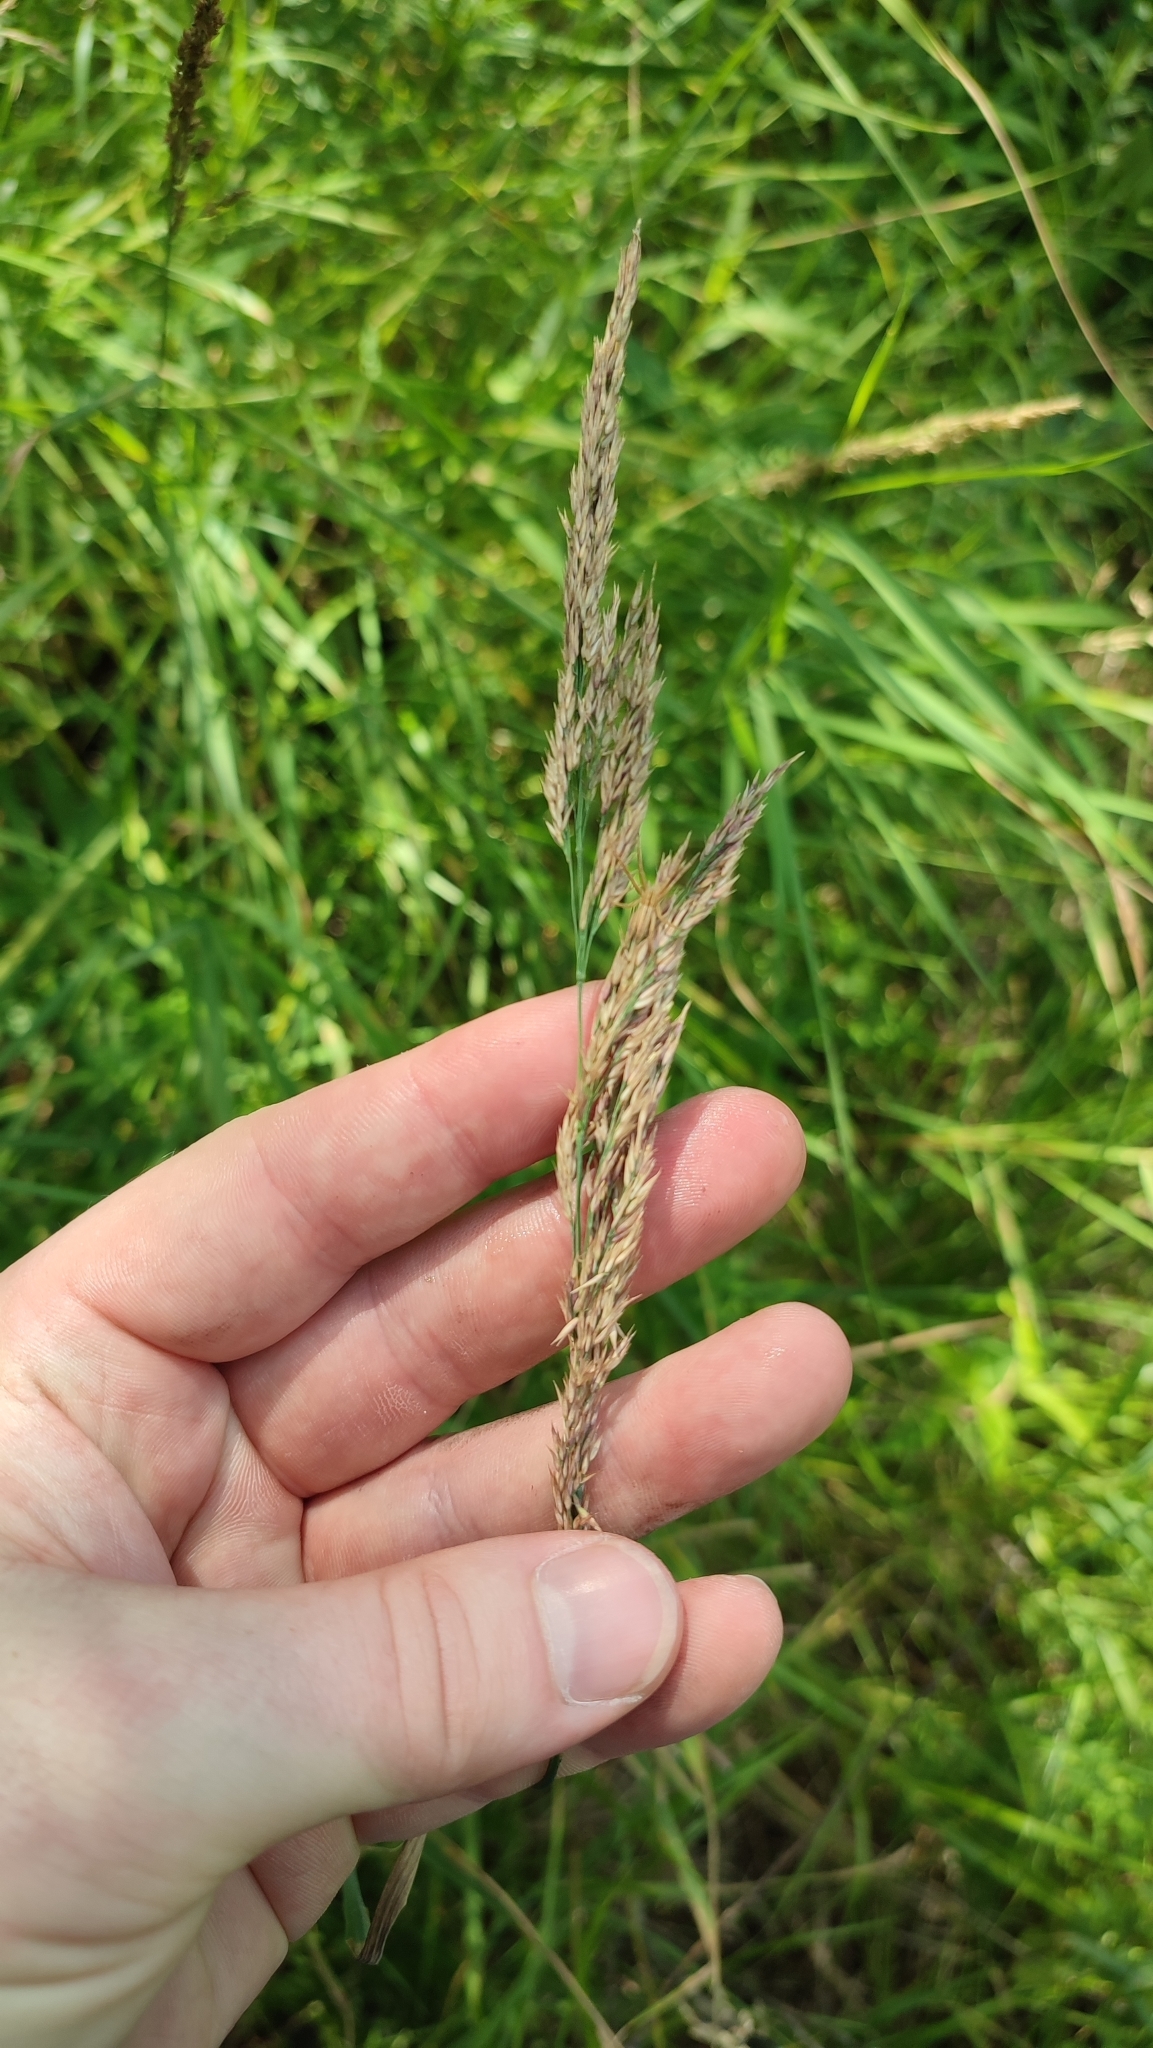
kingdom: Plantae
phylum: Tracheophyta
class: Liliopsida
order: Poales
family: Poaceae
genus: Calamagrostis
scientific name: Calamagrostis purpurea
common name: Scandinavian small-reed
